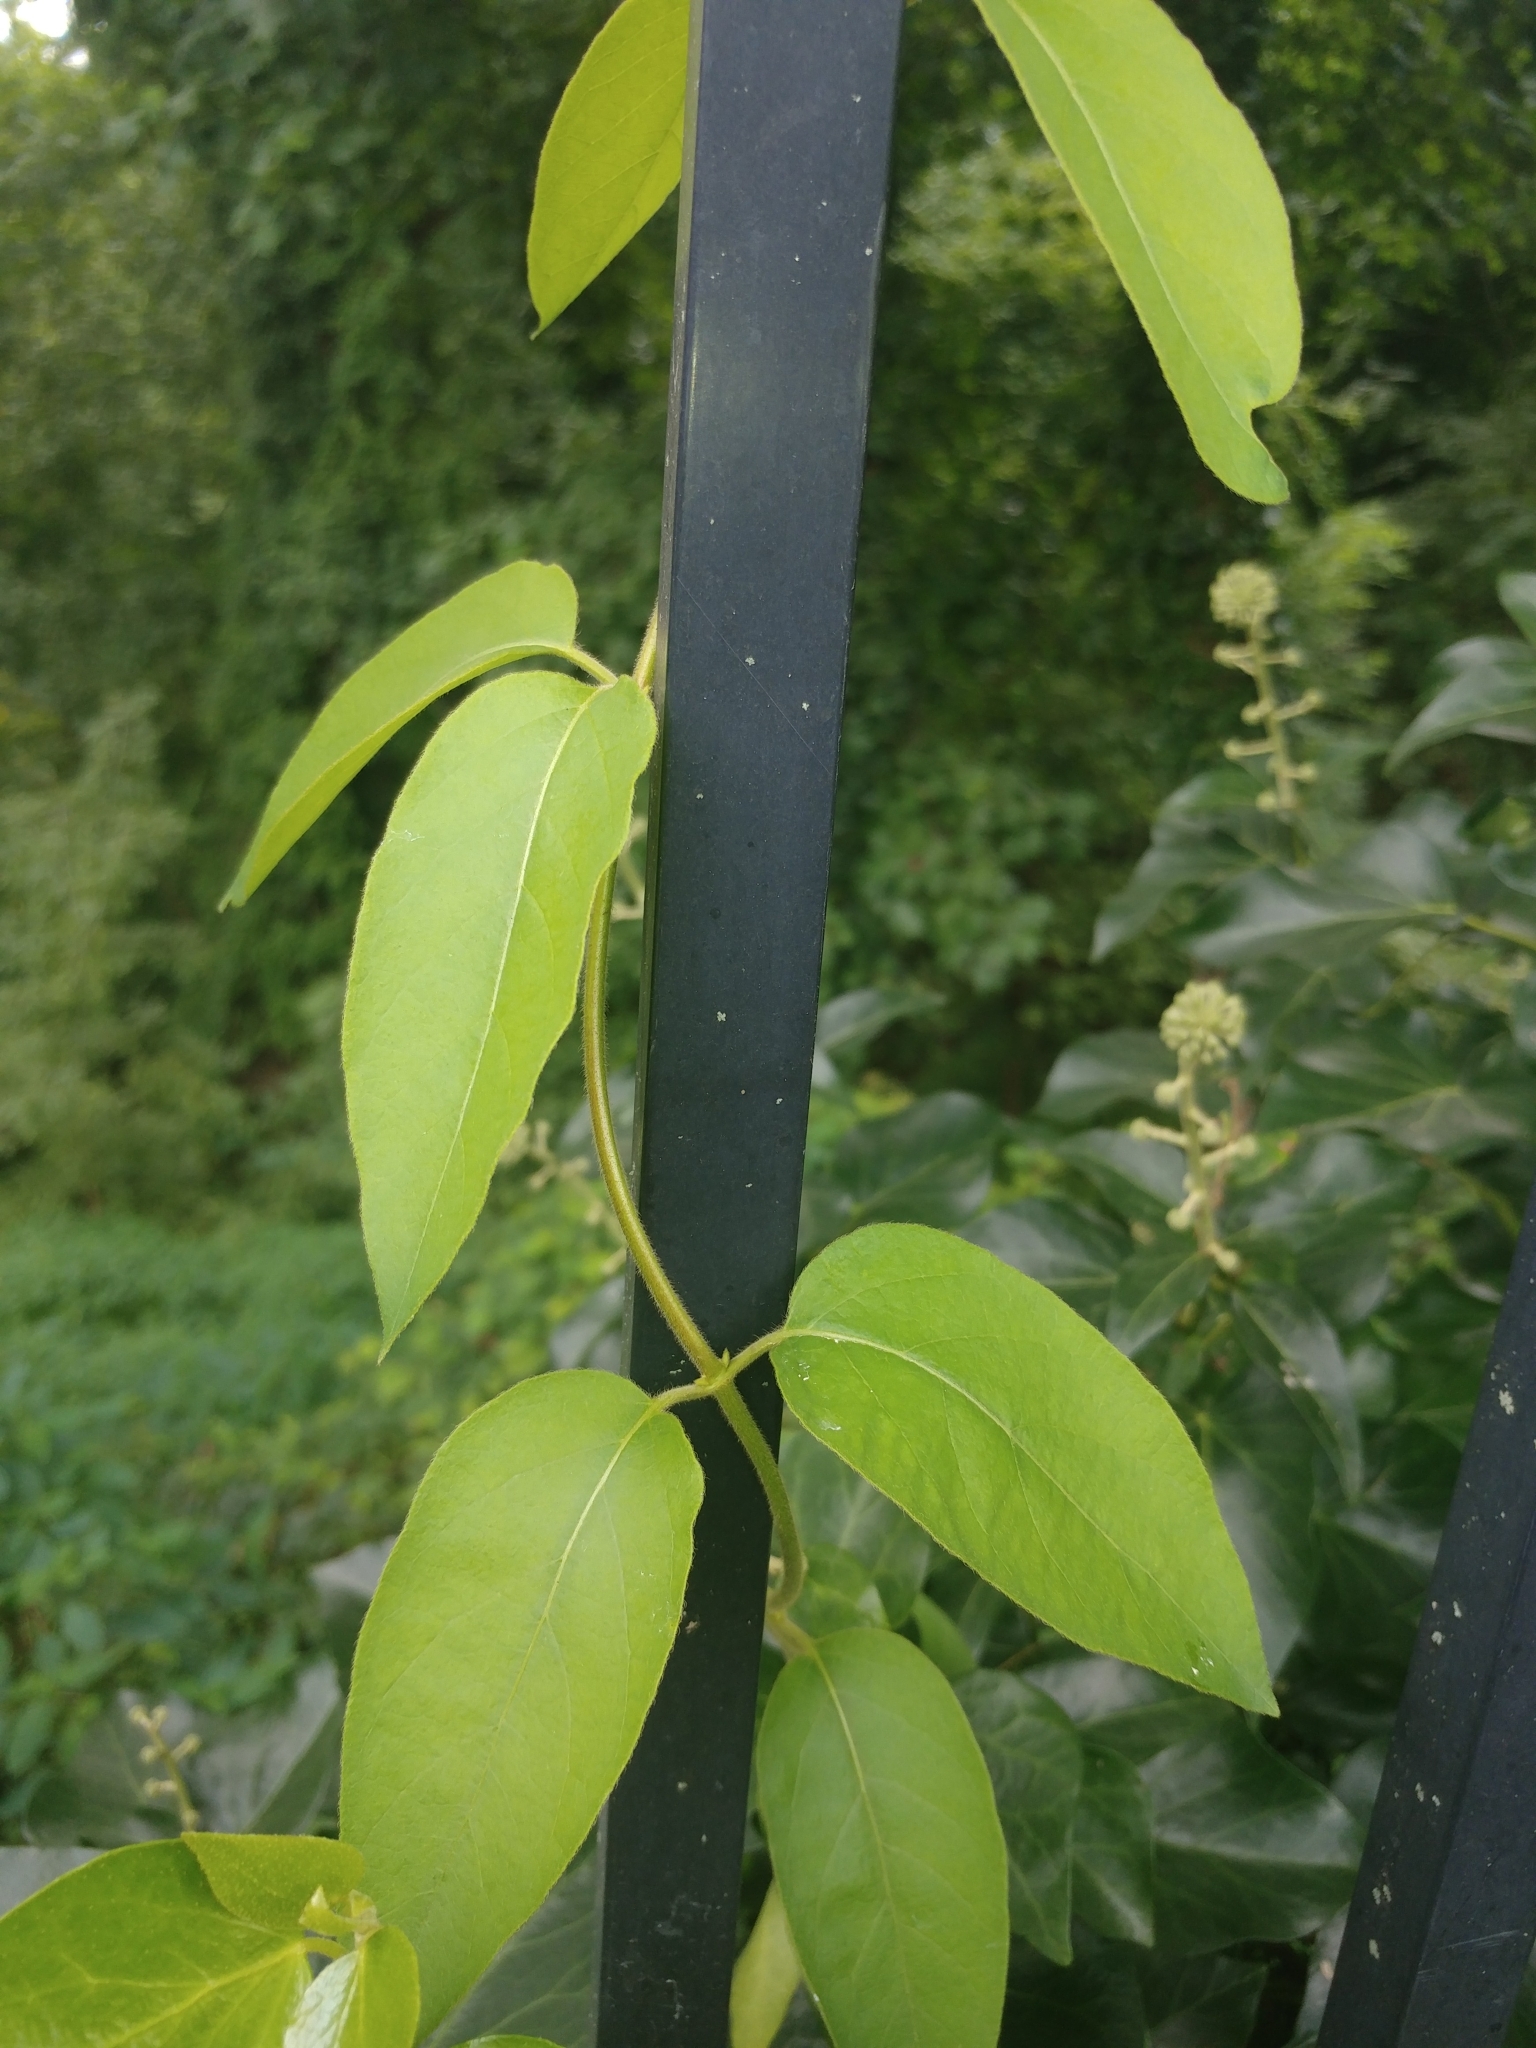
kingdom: Plantae
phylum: Tracheophyta
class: Magnoliopsida
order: Dipsacales
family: Caprifoliaceae
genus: Lonicera
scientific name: Lonicera japonica
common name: Japanese honeysuckle
